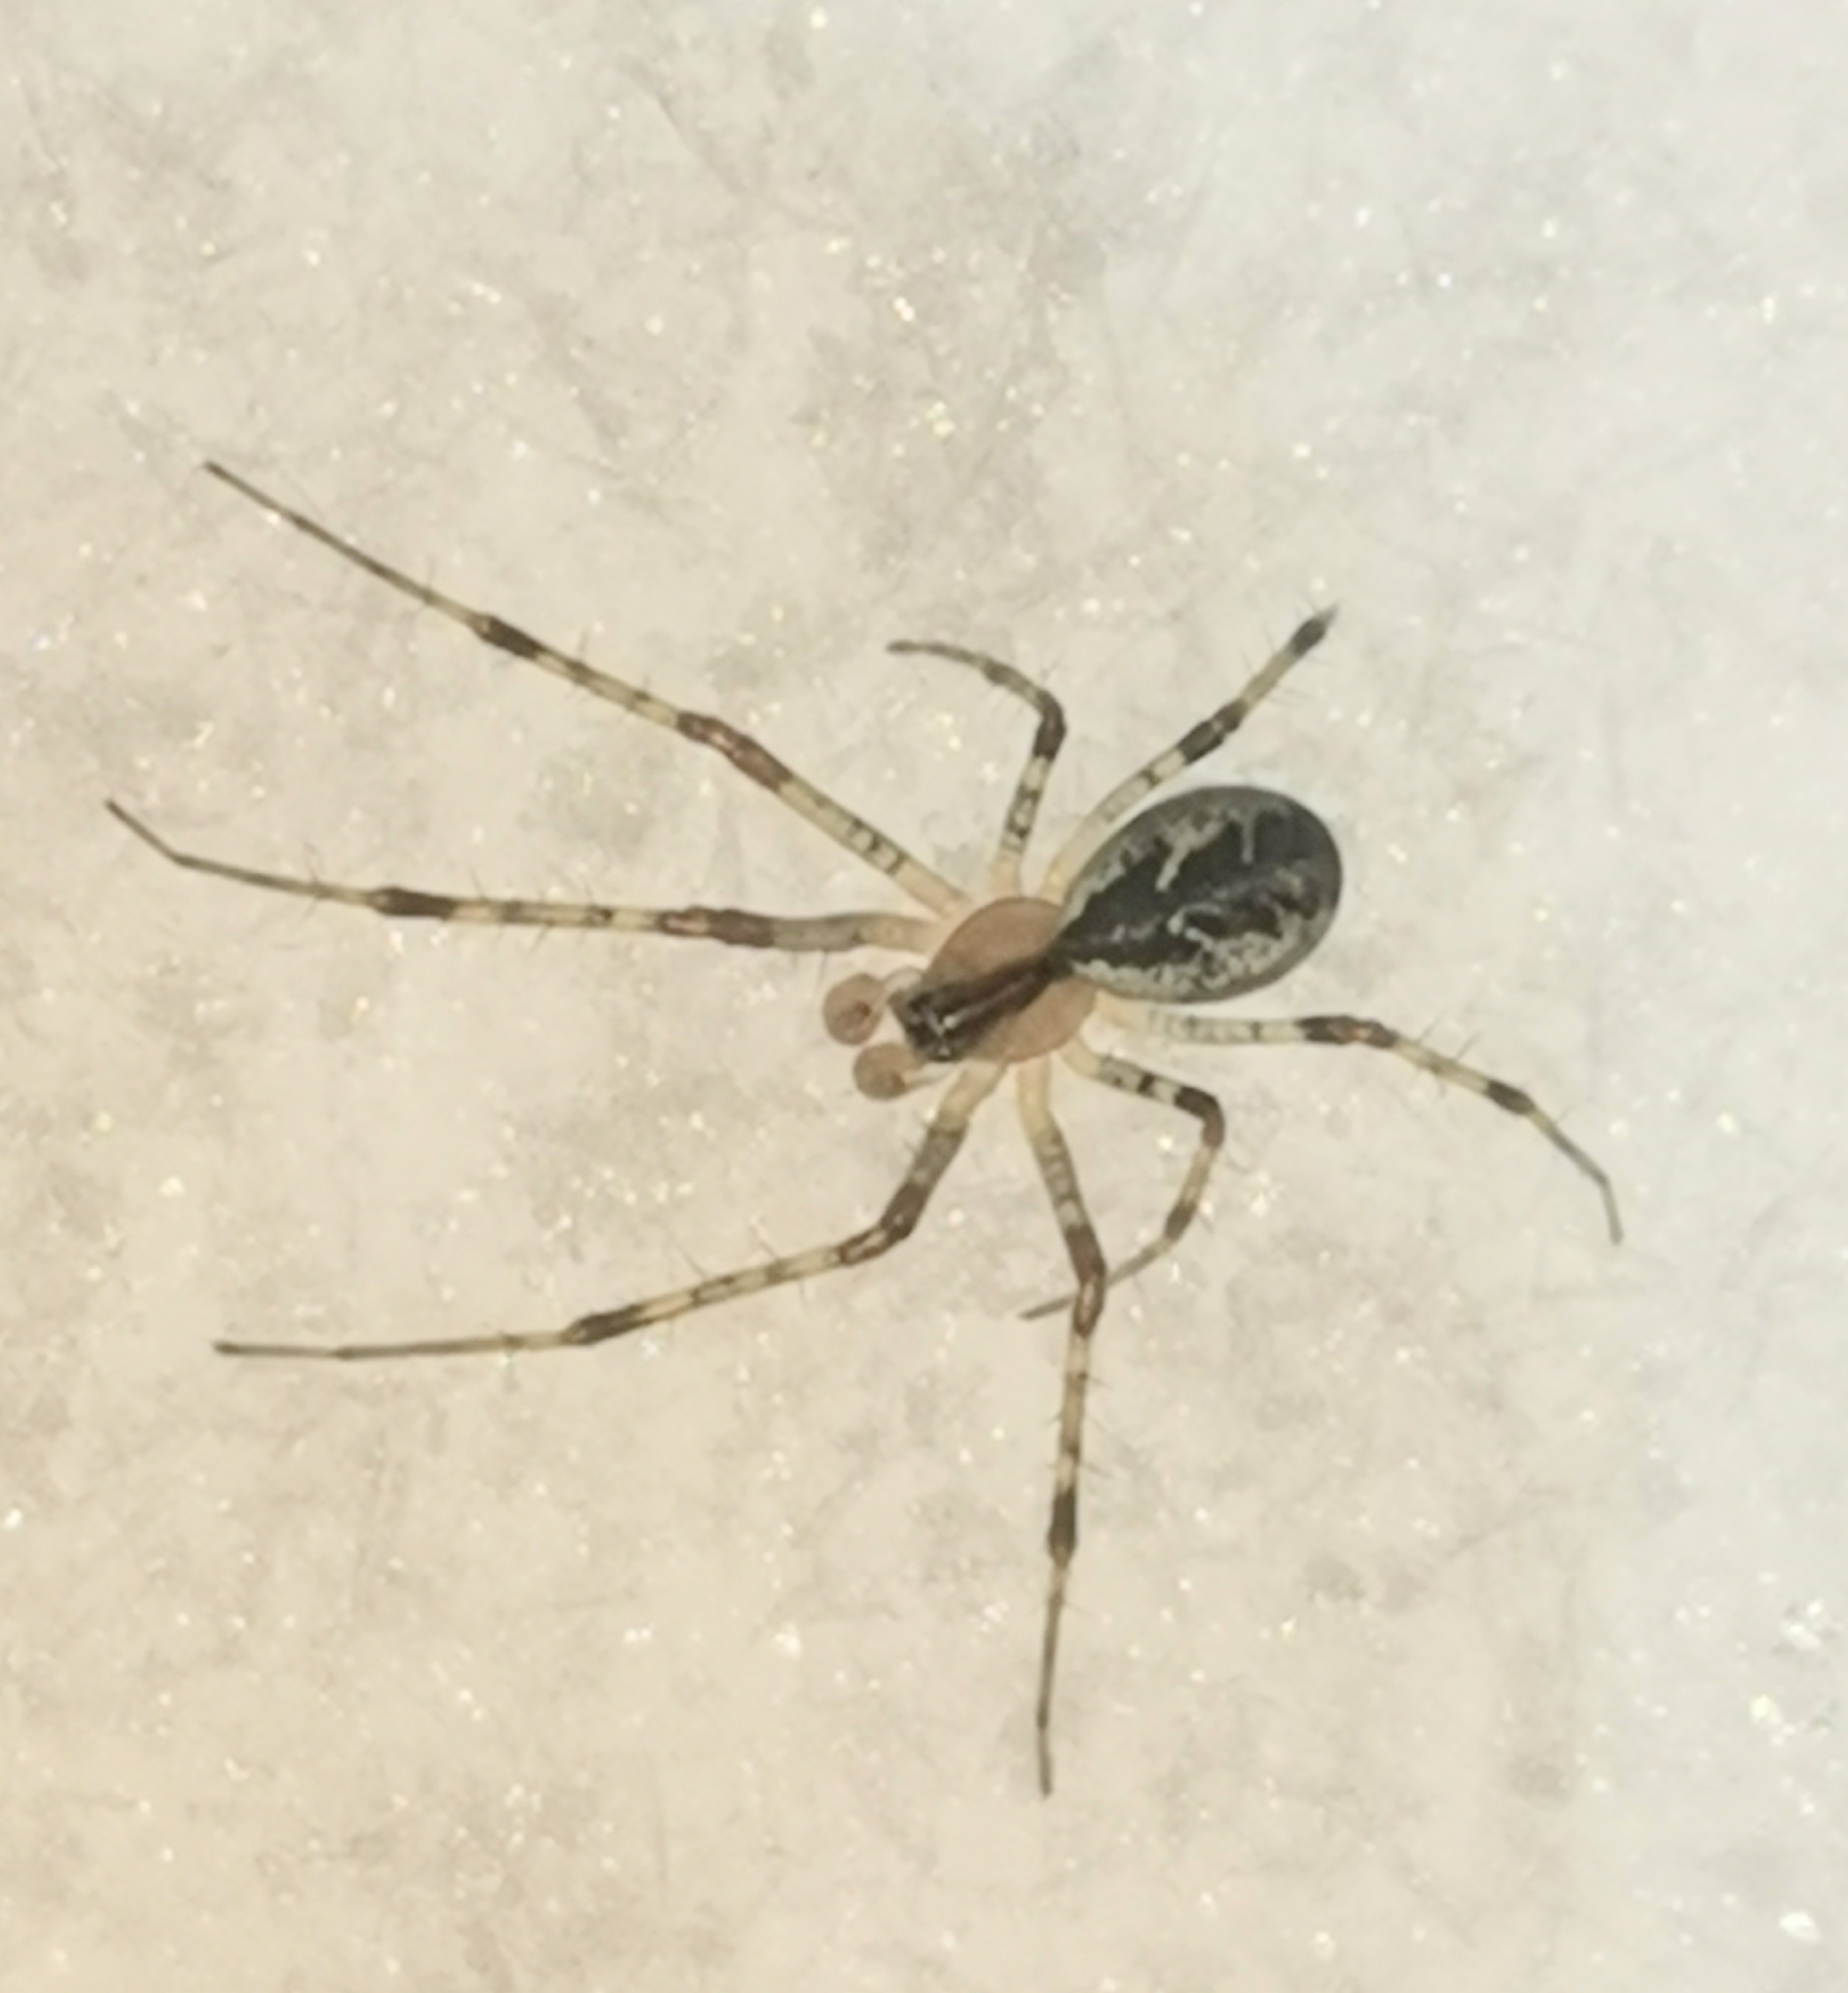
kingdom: Animalia
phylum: Arthropoda
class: Arachnida
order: Araneae
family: Linyphiidae
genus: Pityohyphantes
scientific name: Pityohyphantes phrygianus
